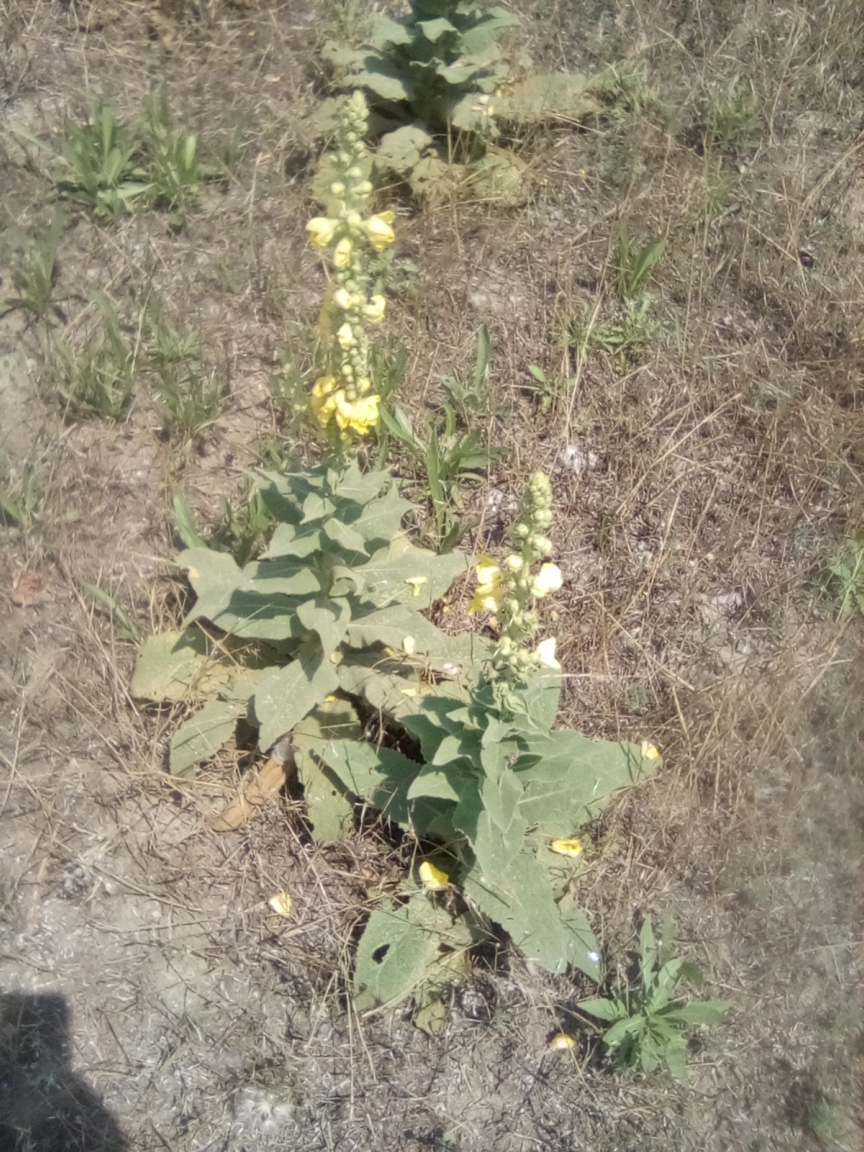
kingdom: Plantae
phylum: Tracheophyta
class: Magnoliopsida
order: Lamiales
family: Scrophulariaceae
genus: Verbascum
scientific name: Verbascum densiflorum
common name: Dense-flowered mullein
